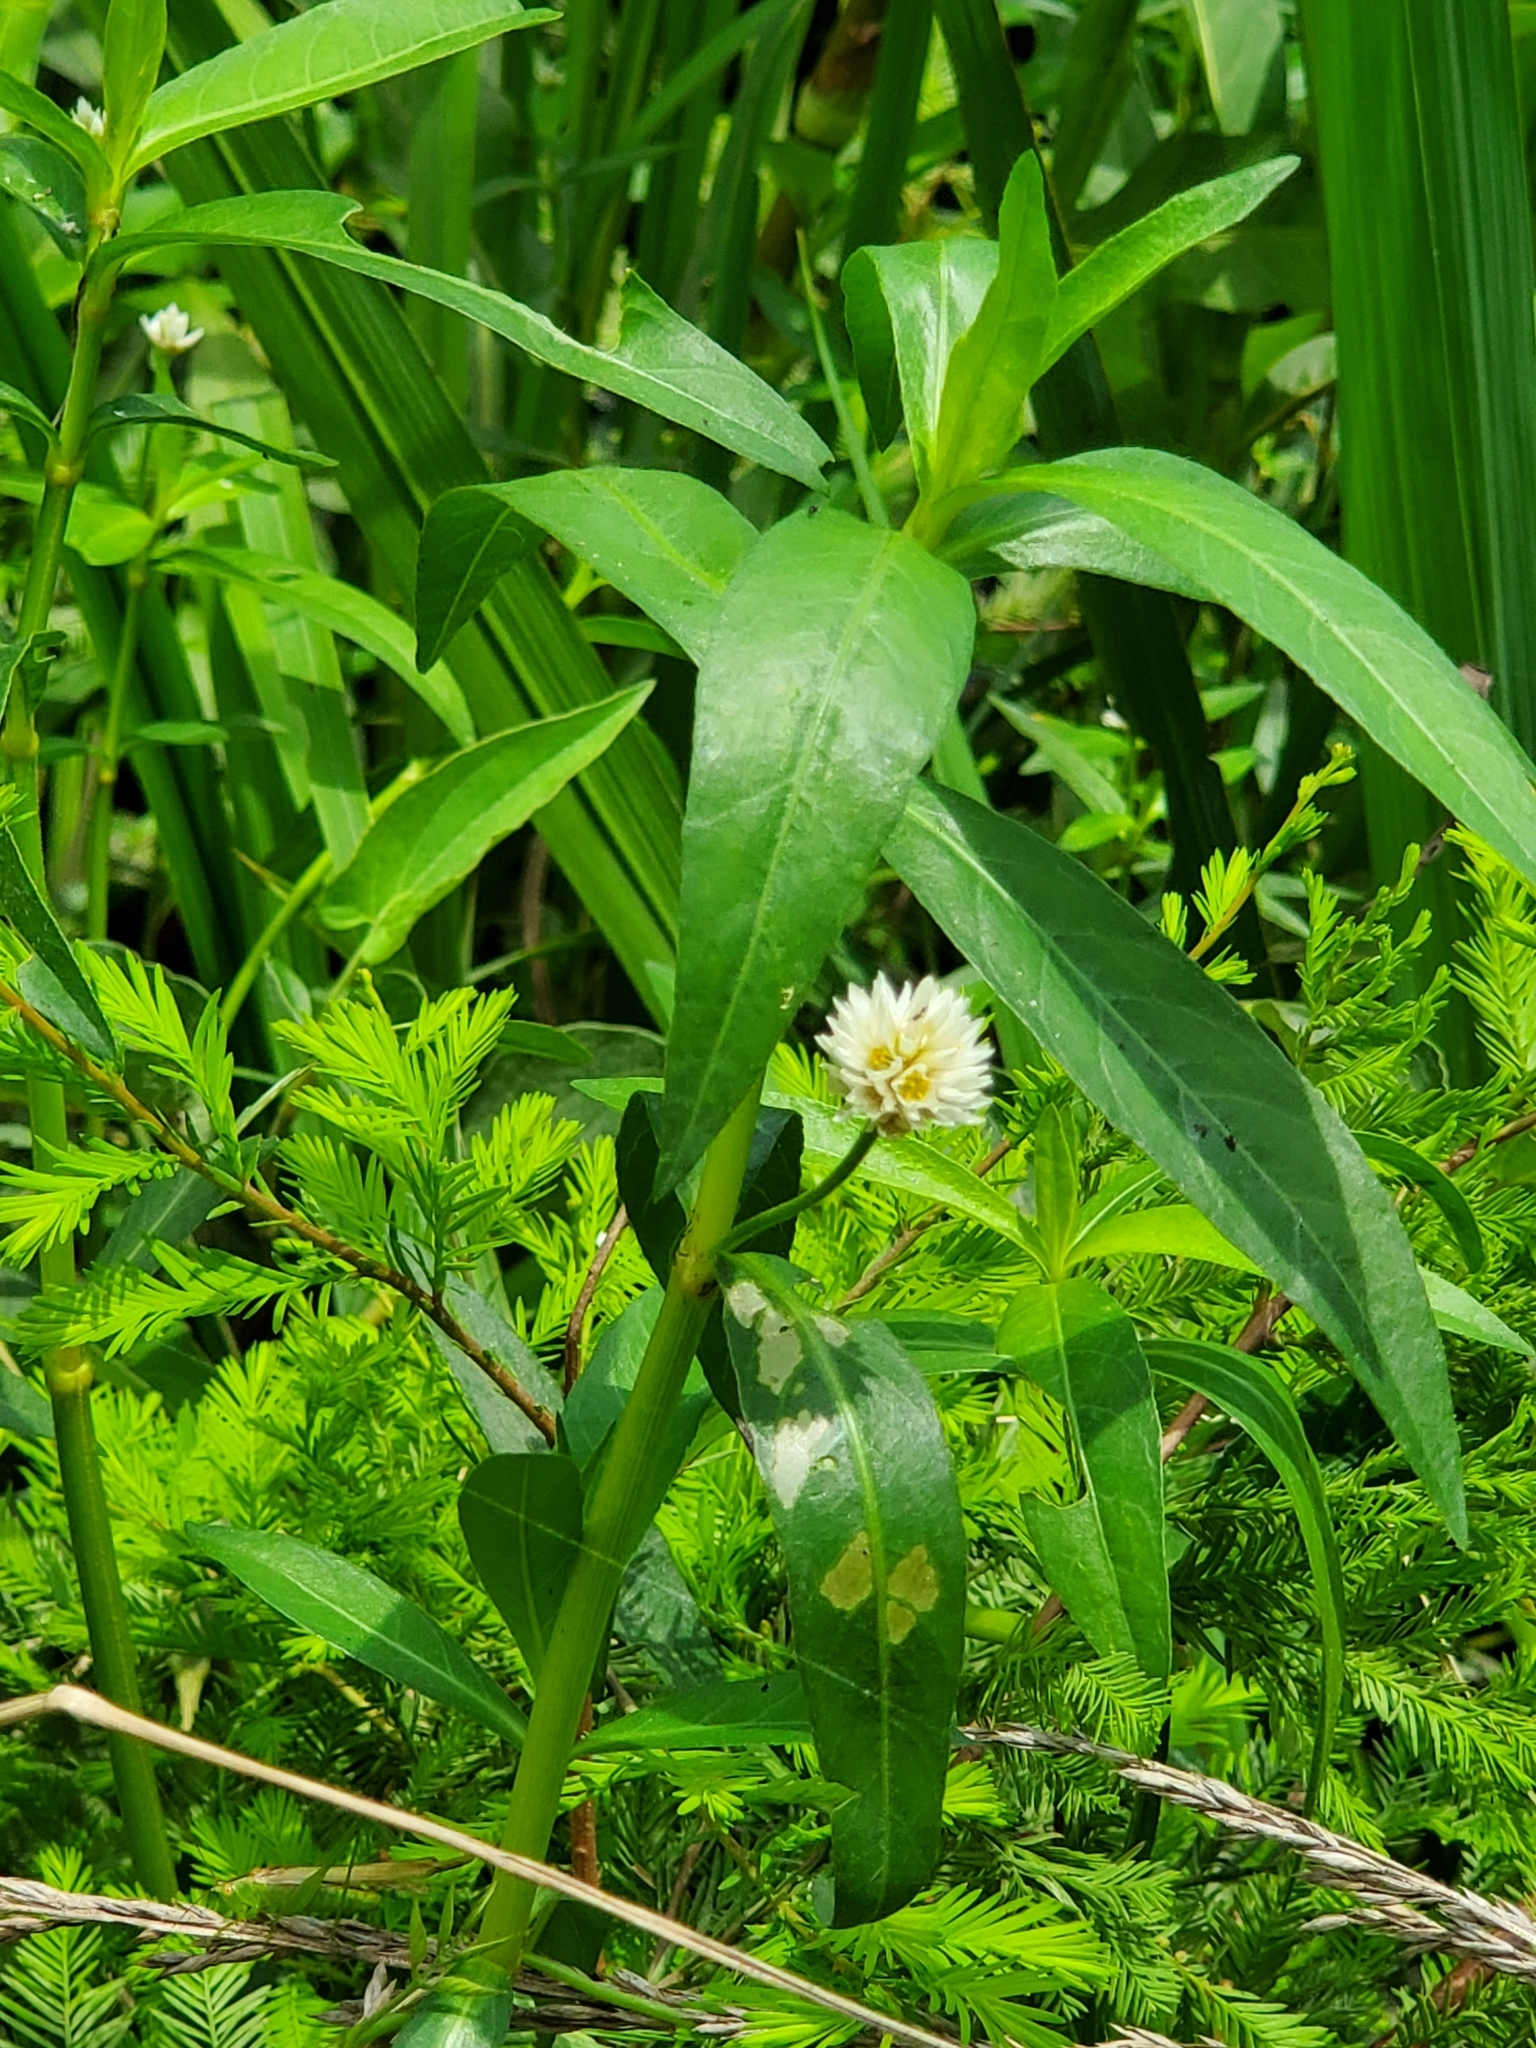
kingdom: Plantae
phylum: Tracheophyta
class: Magnoliopsida
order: Caryophyllales
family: Amaranthaceae
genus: Alternanthera
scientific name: Alternanthera philoxeroides
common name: Alligatorweed
